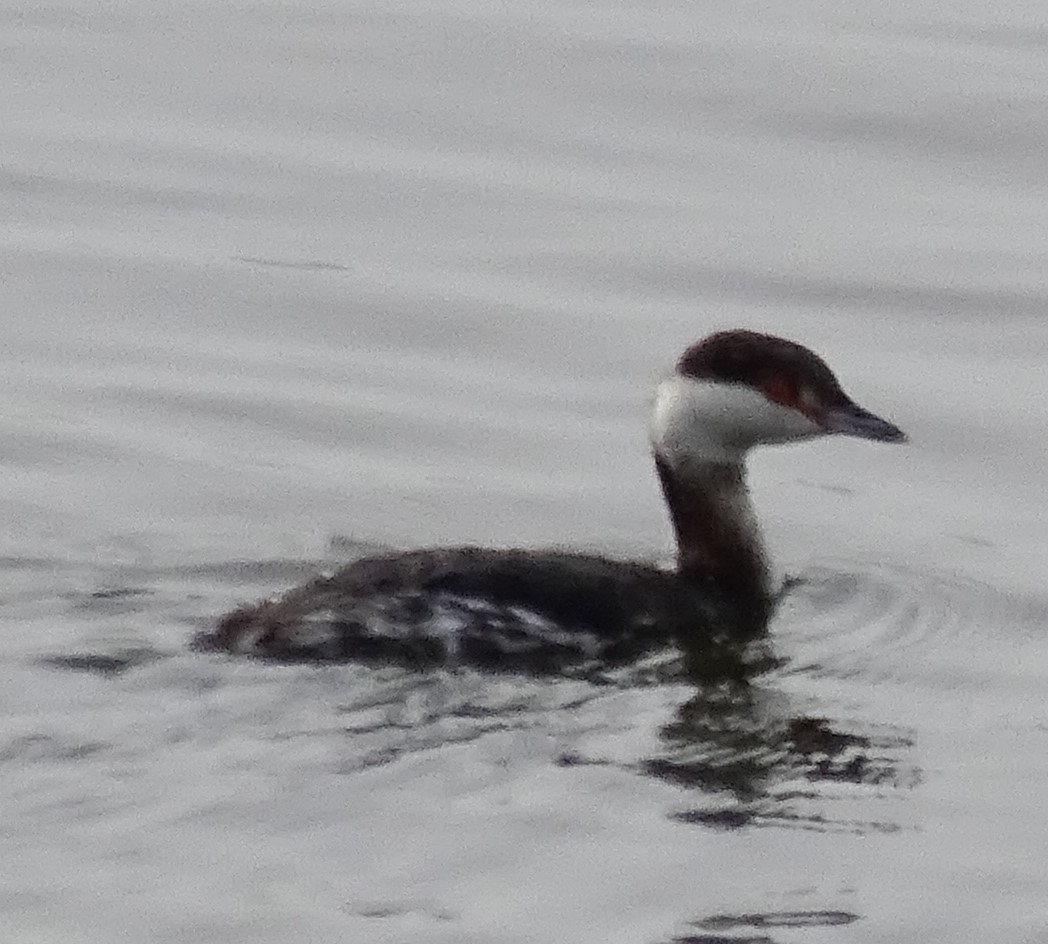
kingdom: Animalia
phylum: Chordata
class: Aves
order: Podicipediformes
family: Podicipedidae
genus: Podiceps
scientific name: Podiceps auritus
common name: Horned grebe
